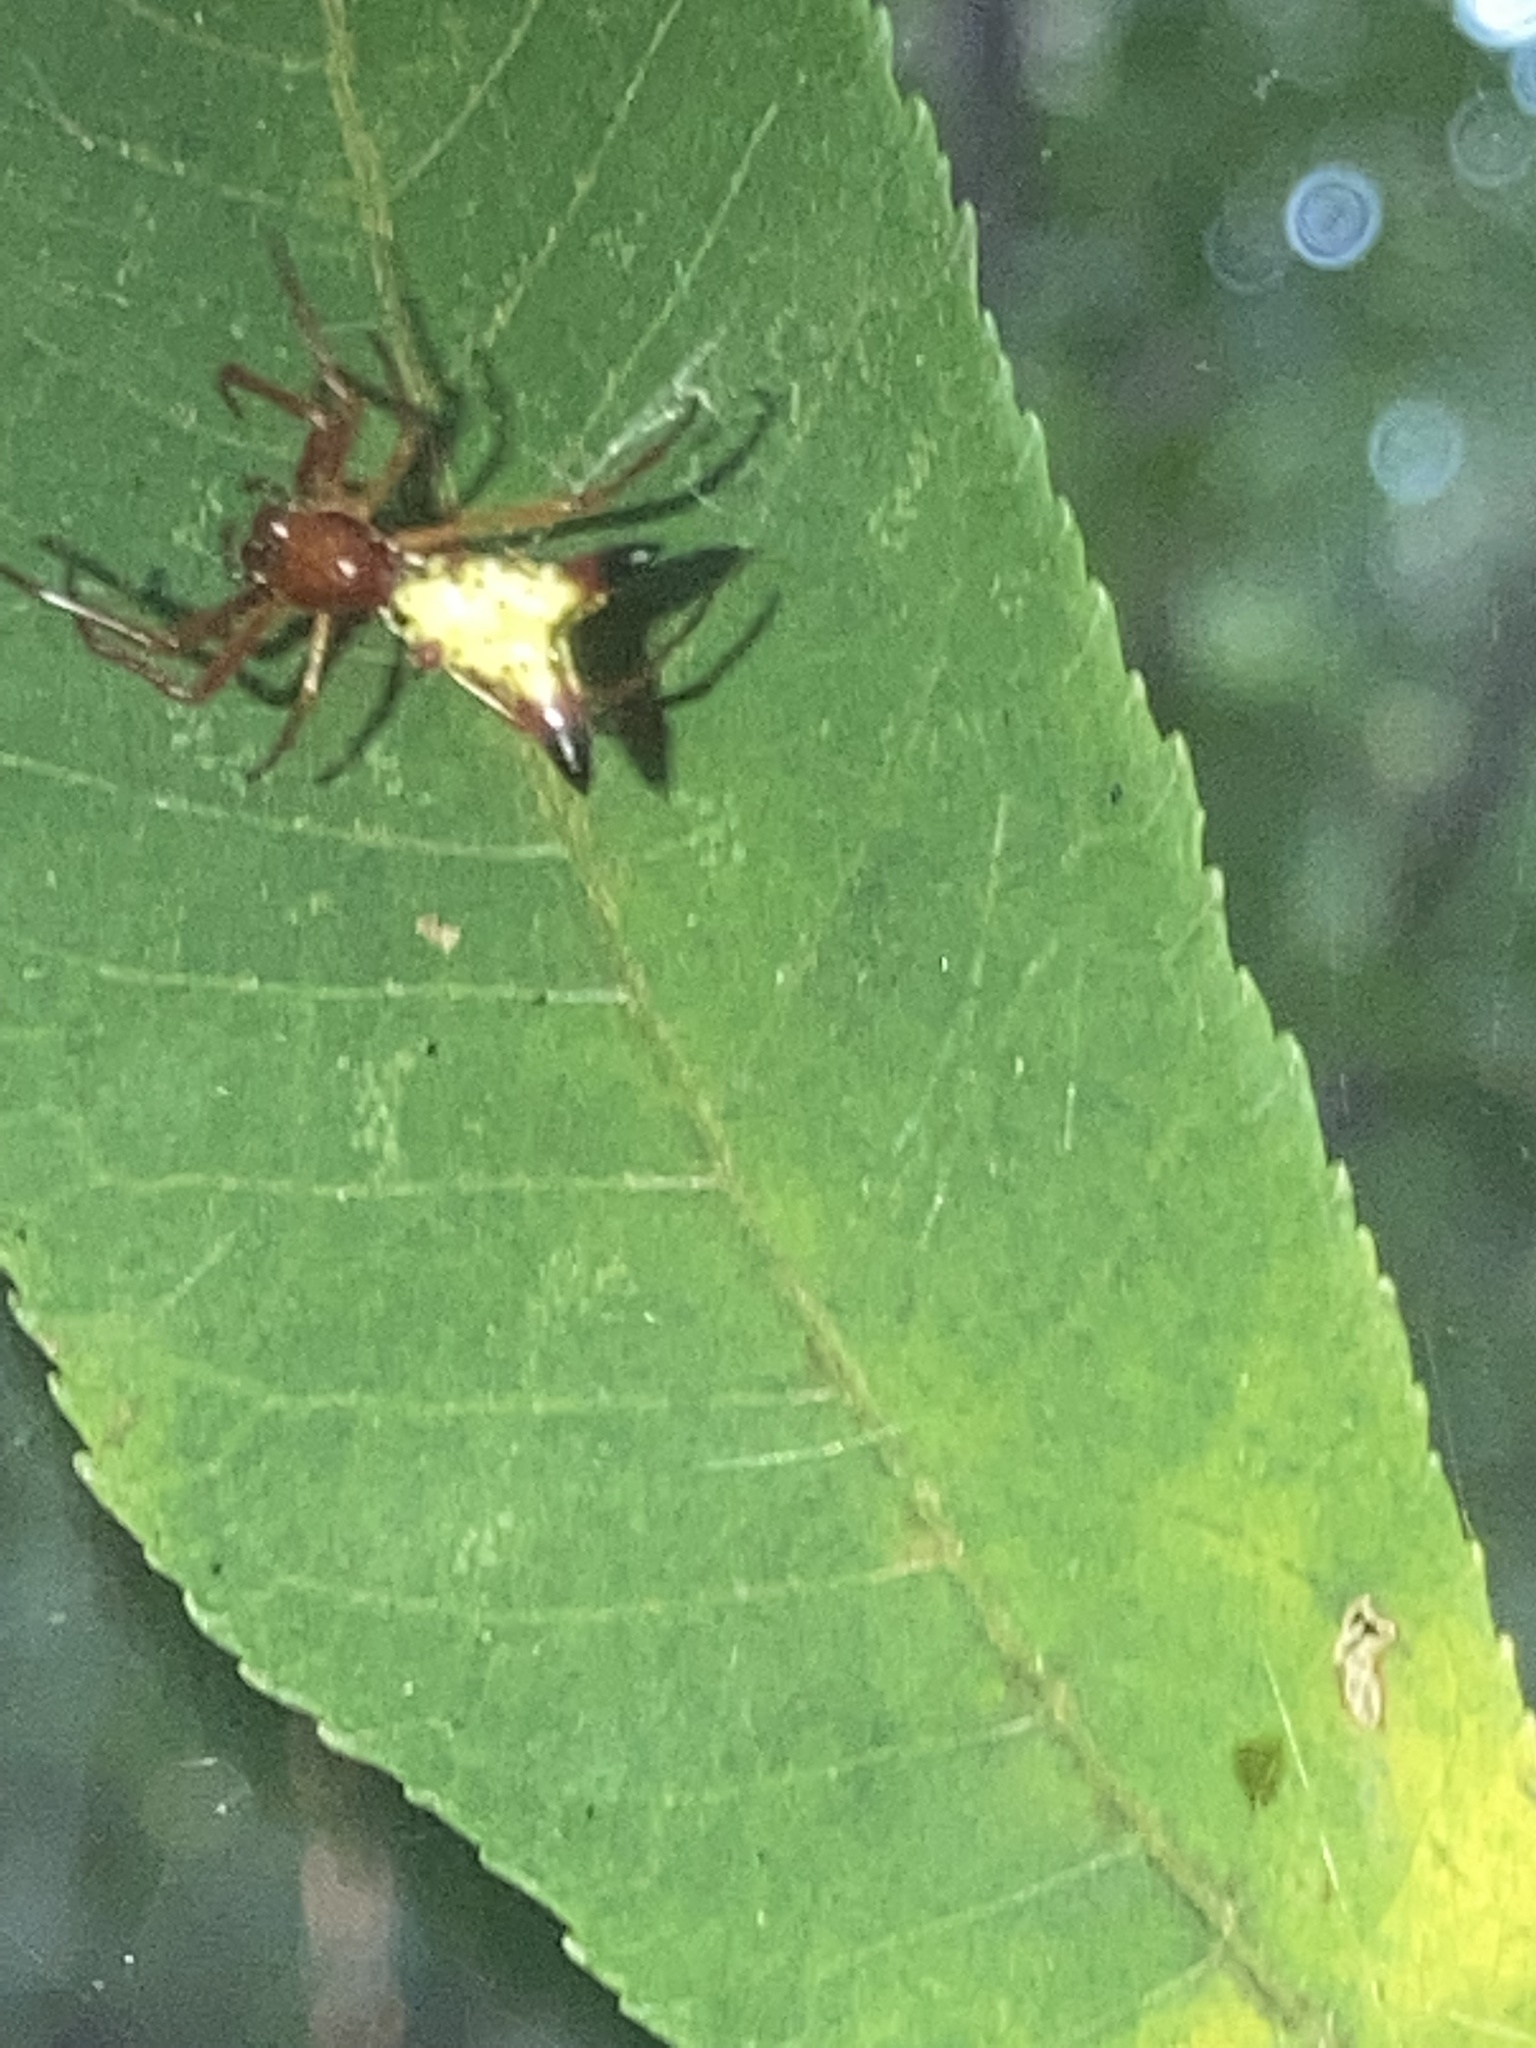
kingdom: Animalia
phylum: Arthropoda
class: Arachnida
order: Araneae
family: Araneidae
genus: Micrathena
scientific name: Micrathena sagittata
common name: Orb weavers
